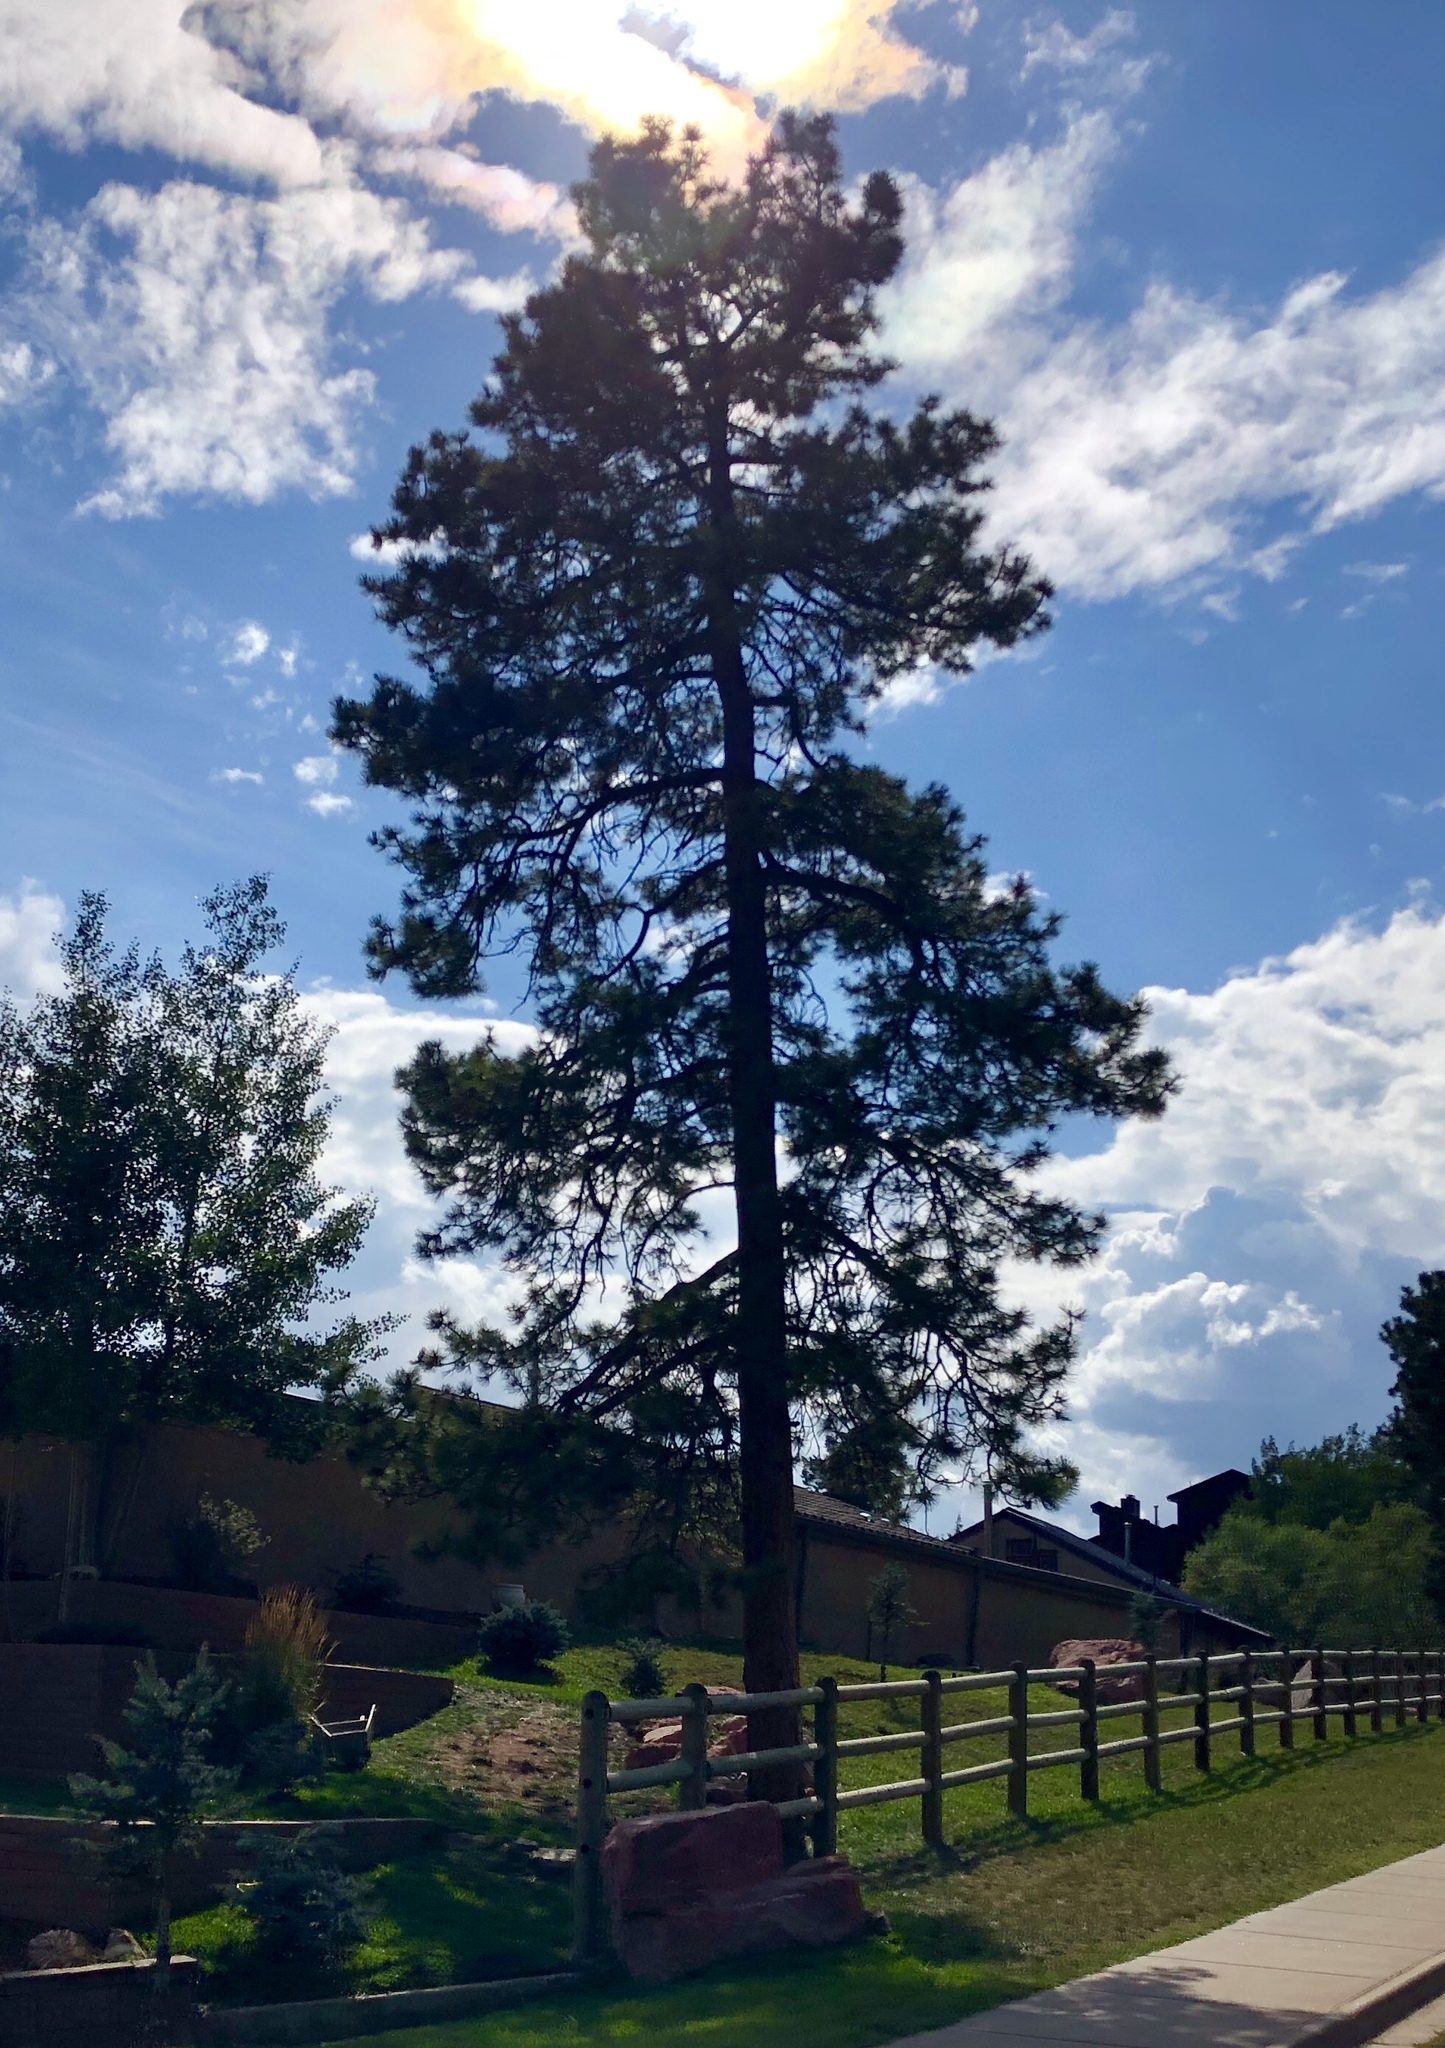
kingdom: Plantae
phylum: Tracheophyta
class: Pinopsida
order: Pinales
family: Pinaceae
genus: Pinus
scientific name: Pinus ponderosa
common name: Western yellow-pine
